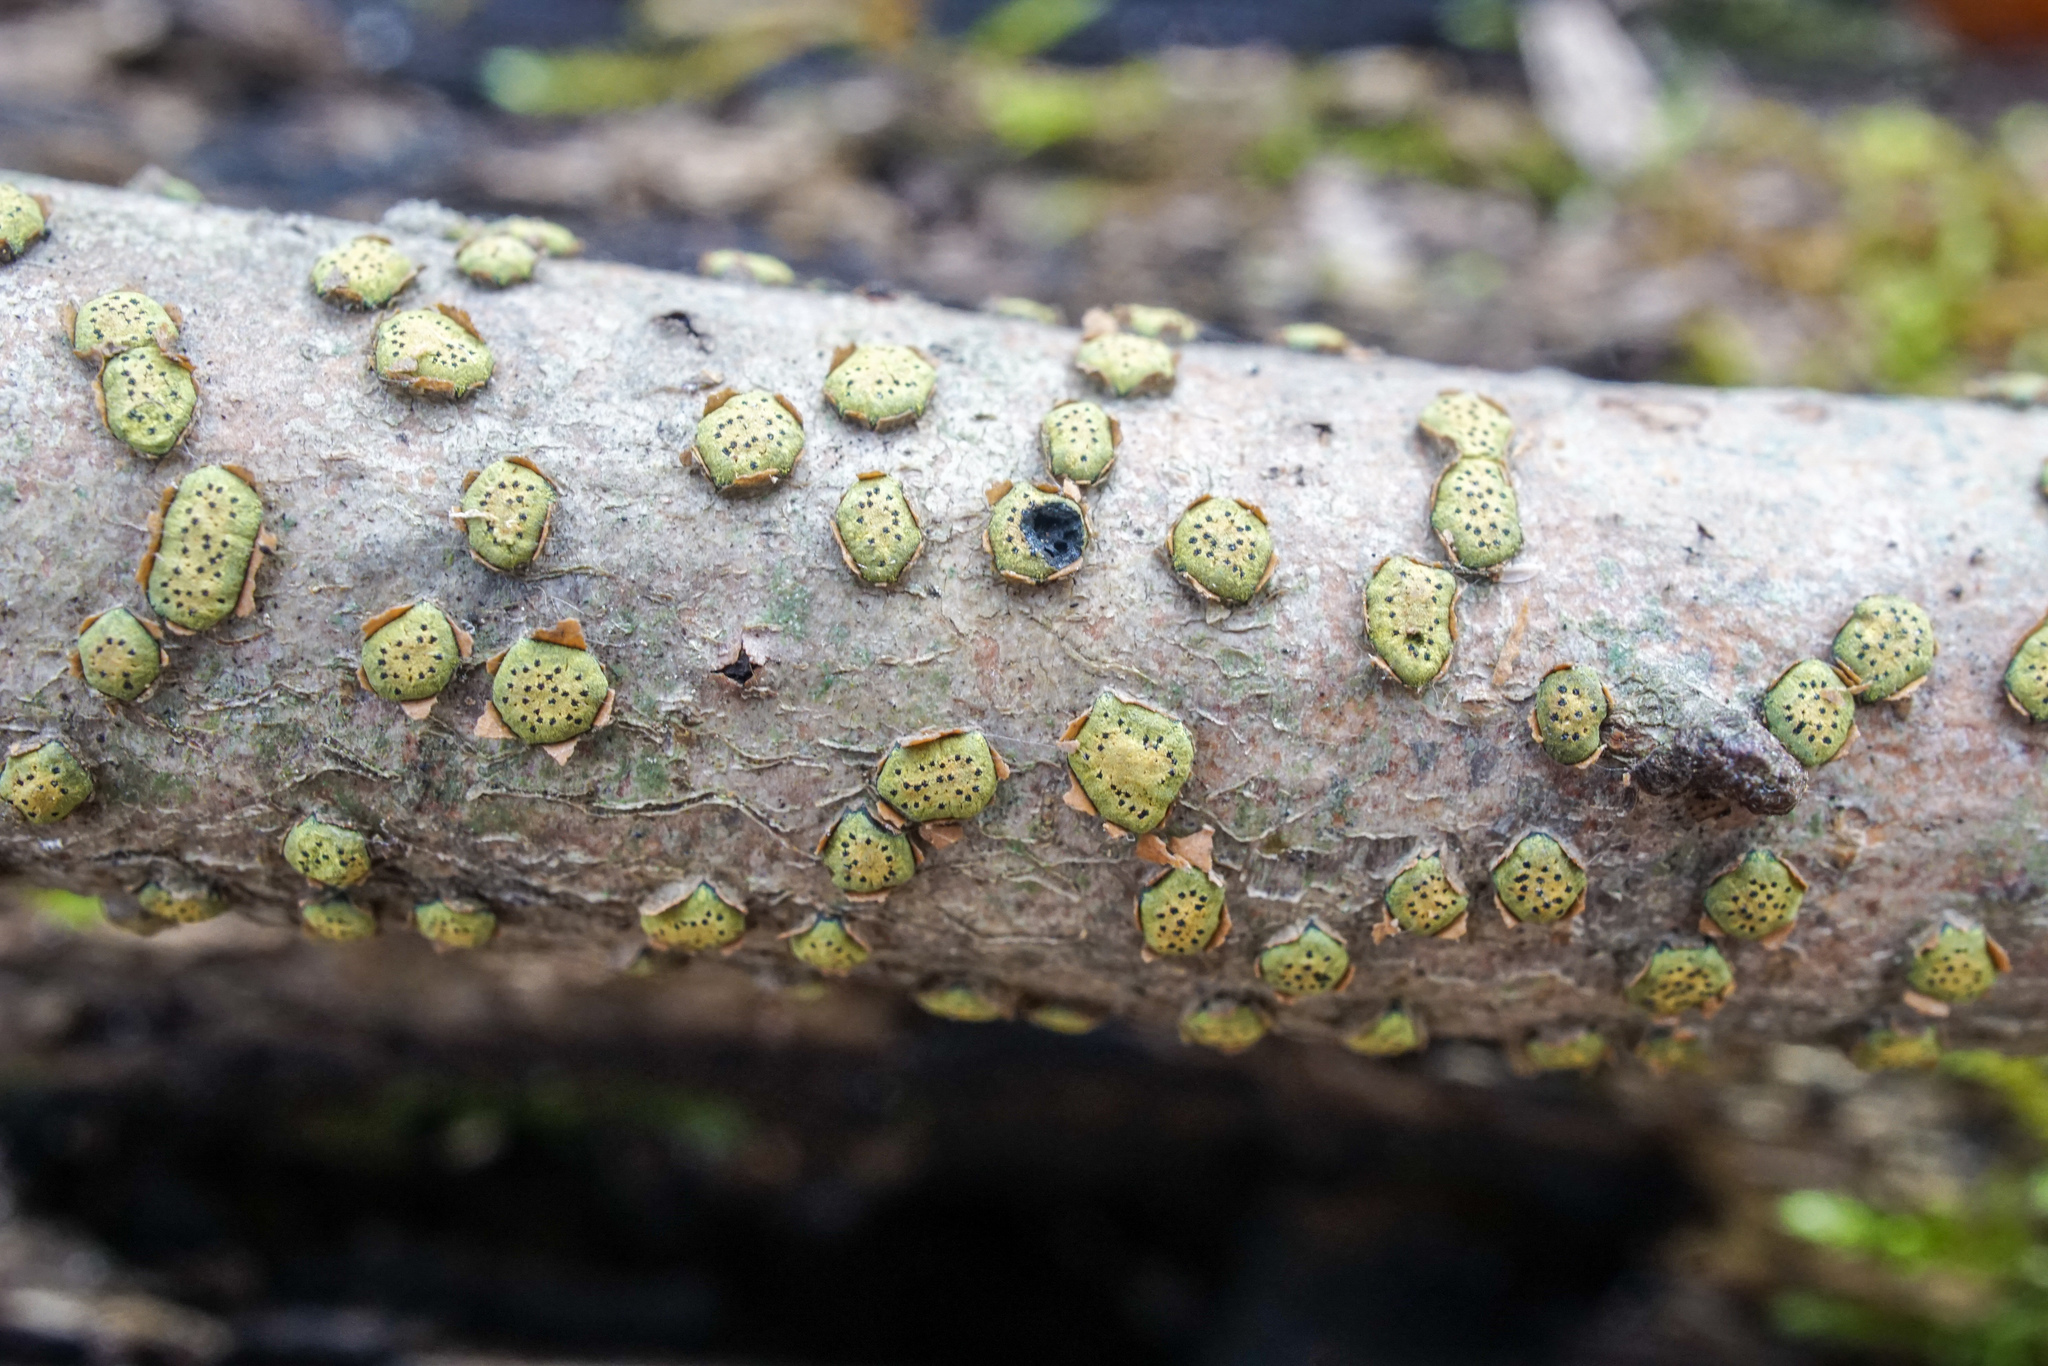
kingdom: Fungi
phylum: Ascomycota
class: Sordariomycetes
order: Xylariales
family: Diatrypaceae
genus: Diatrype
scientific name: Diatrype virescens
